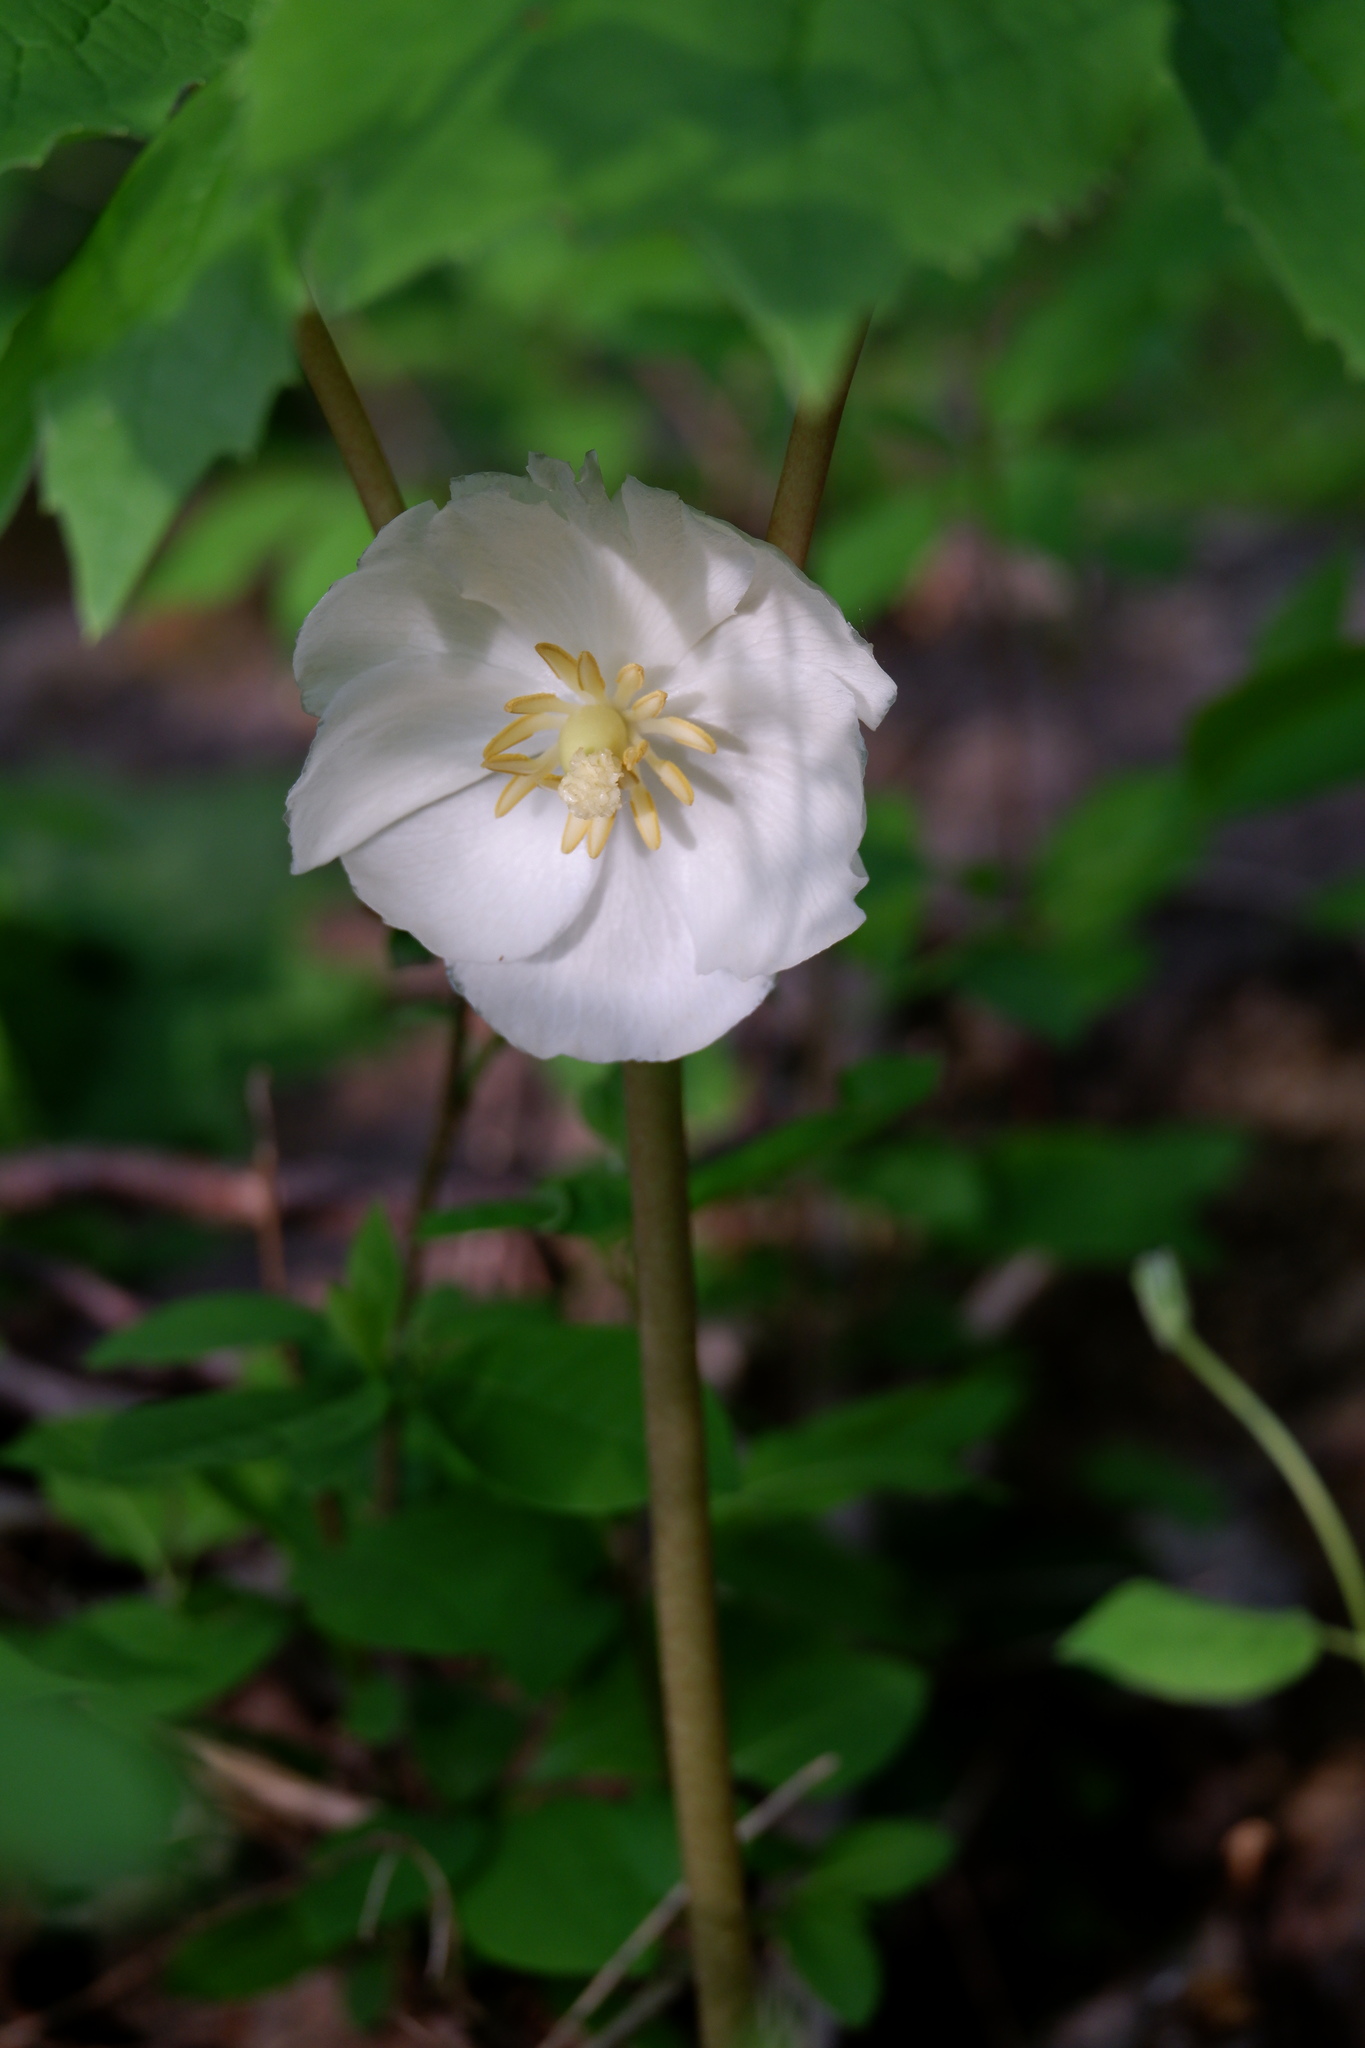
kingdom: Plantae
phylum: Tracheophyta
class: Magnoliopsida
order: Ranunculales
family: Berberidaceae
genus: Podophyllum
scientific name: Podophyllum peltatum
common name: Wild mandrake
